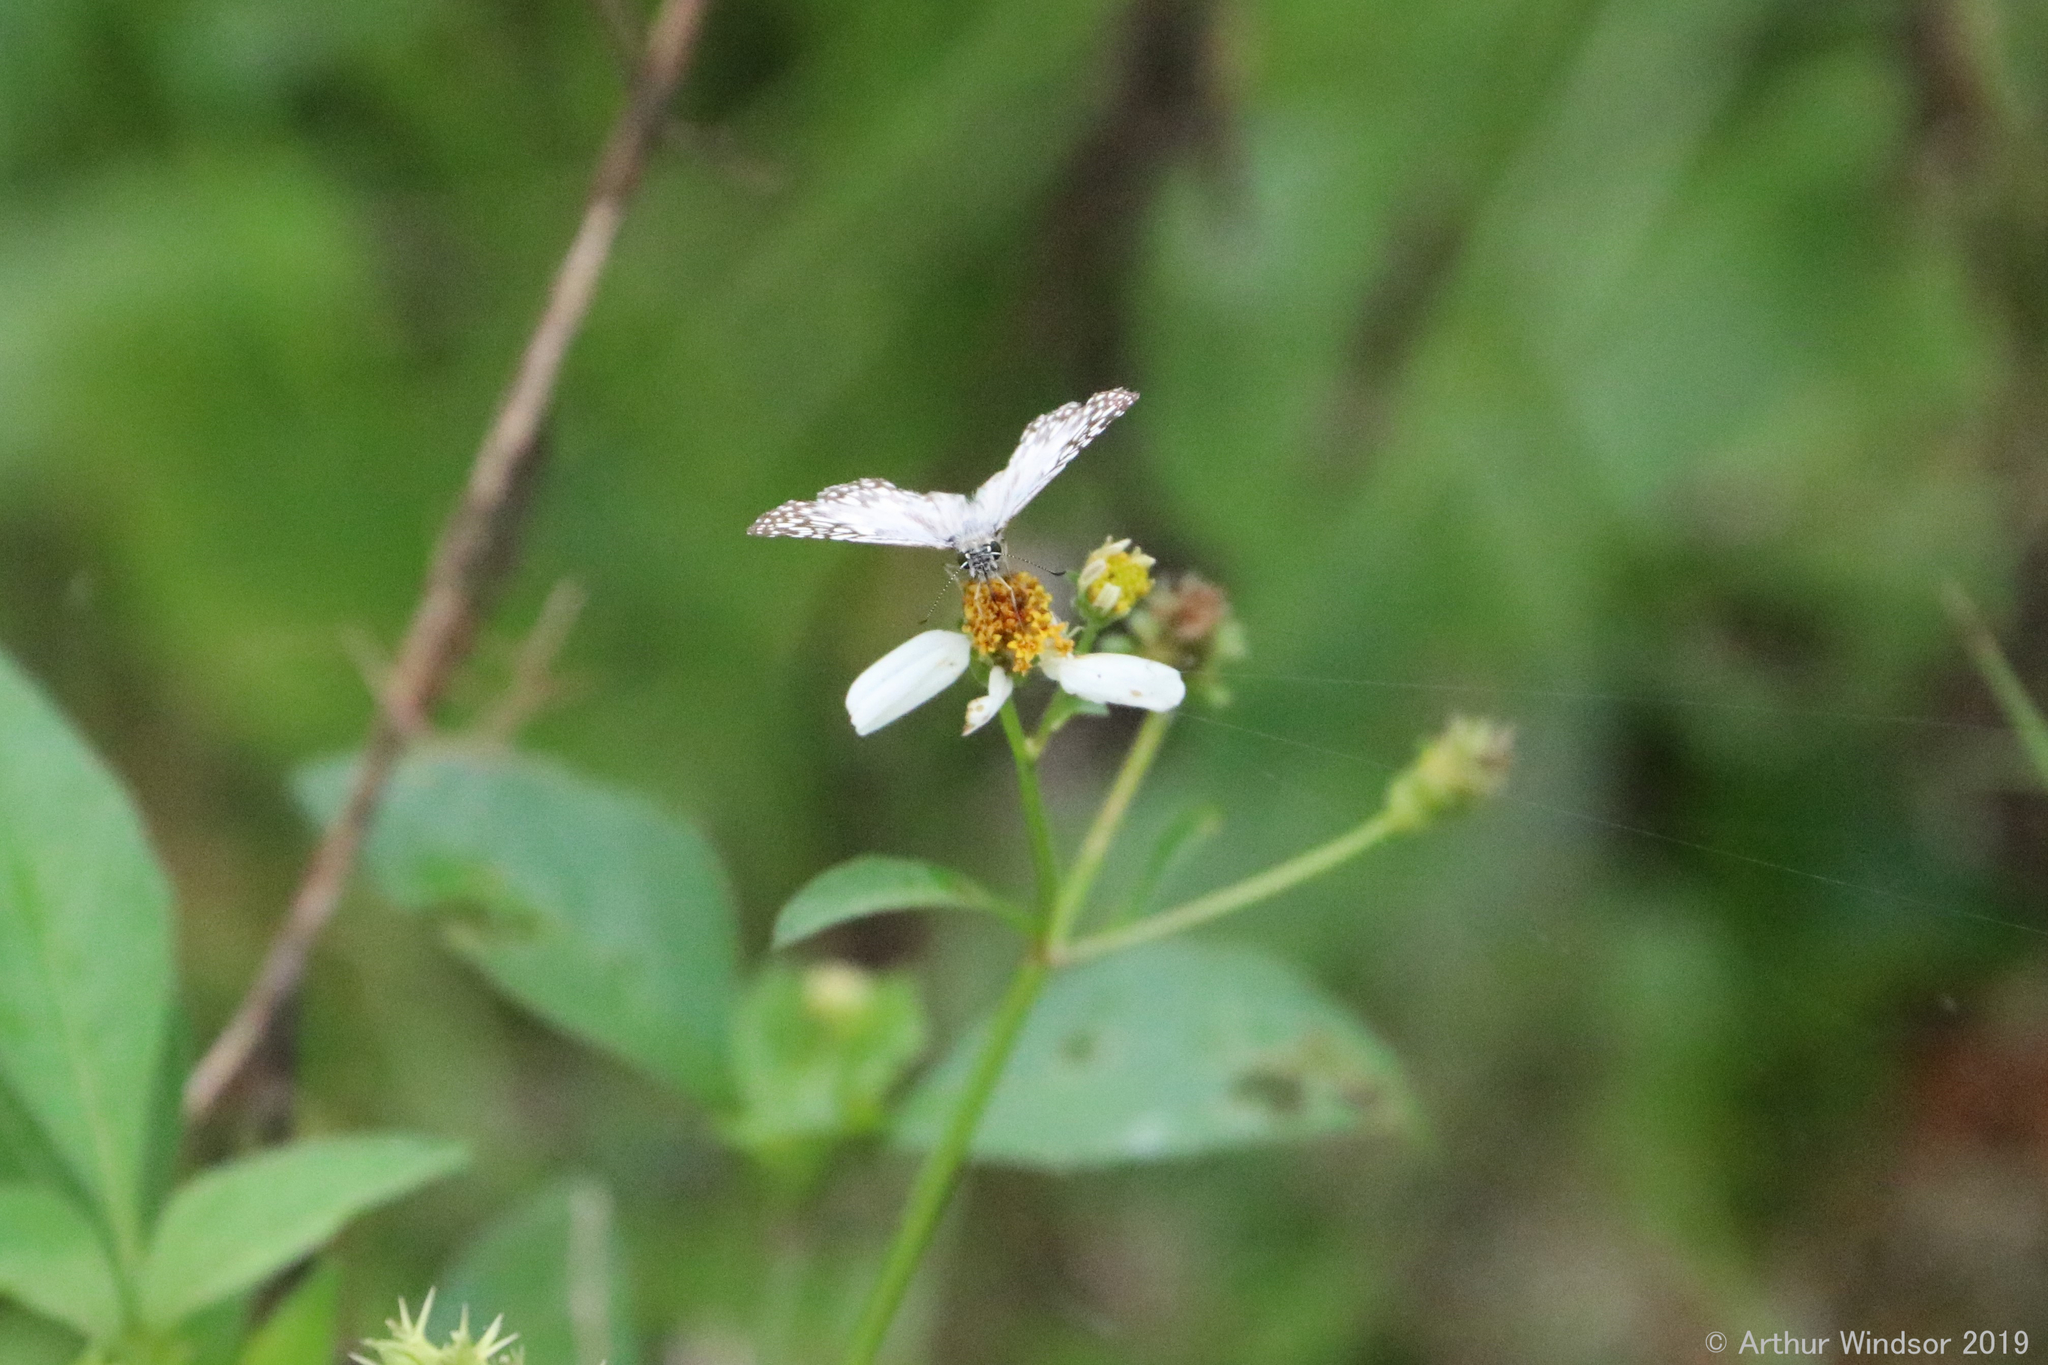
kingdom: Animalia
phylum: Arthropoda
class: Insecta
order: Lepidoptera
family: Hesperiidae
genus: Pyrgus
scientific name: Pyrgus oileus
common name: Tropical checkered-skipper
